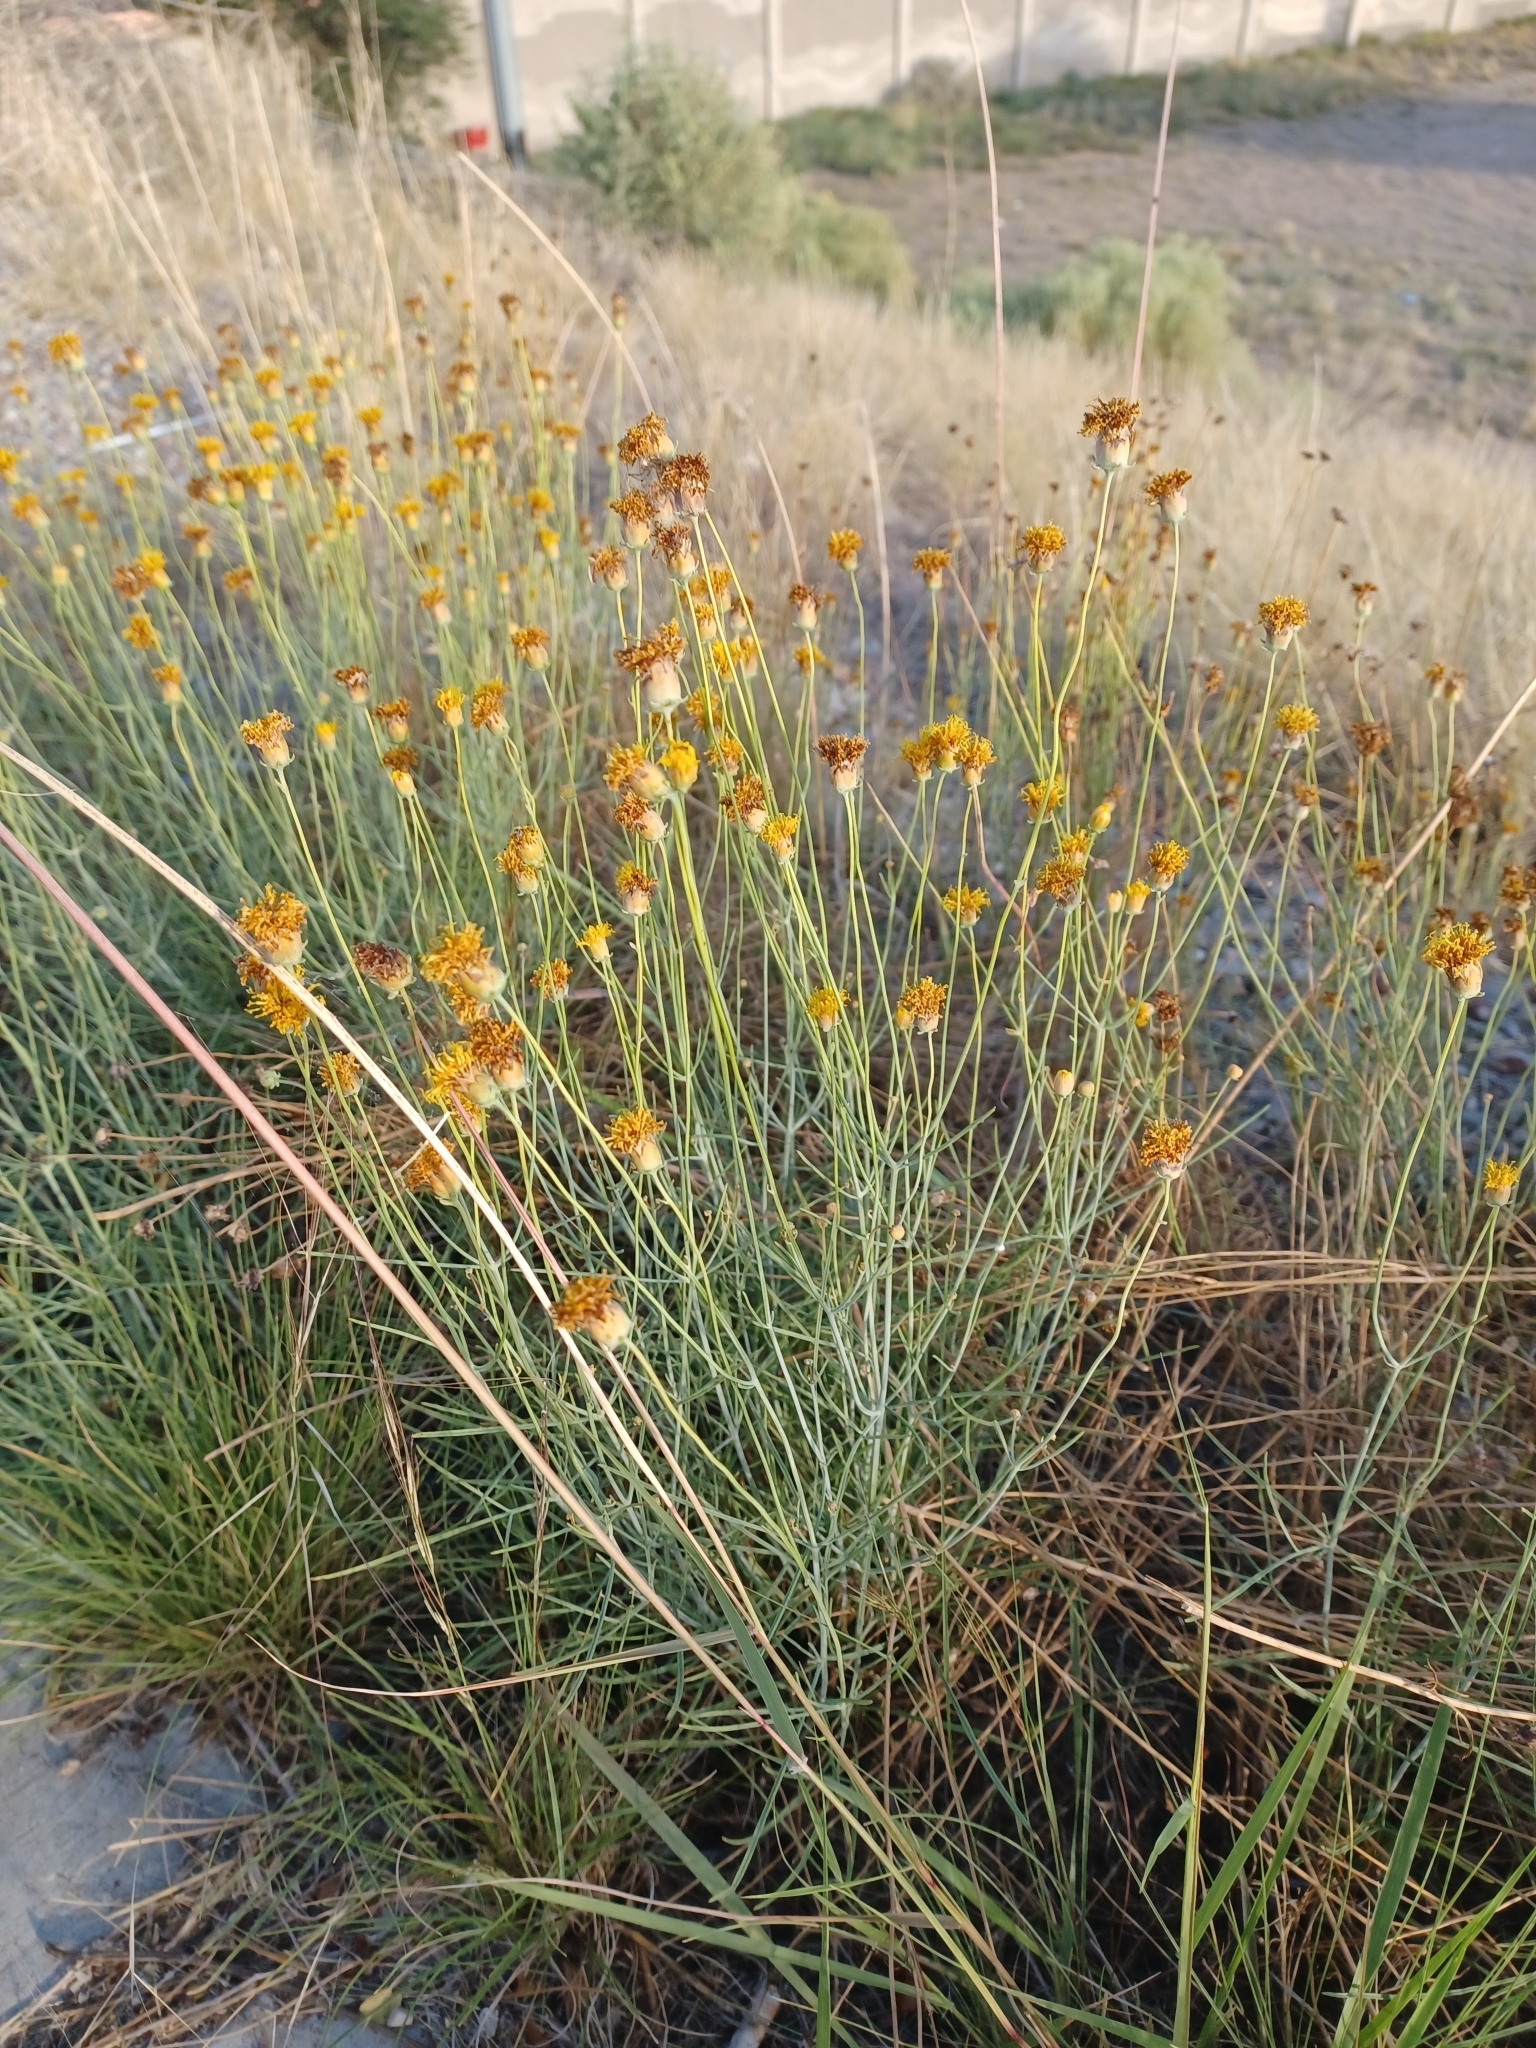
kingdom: Plantae
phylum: Tracheophyta
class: Magnoliopsida
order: Asterales
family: Asteraceae
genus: Thelesperma
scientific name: Thelesperma megapotamicum
